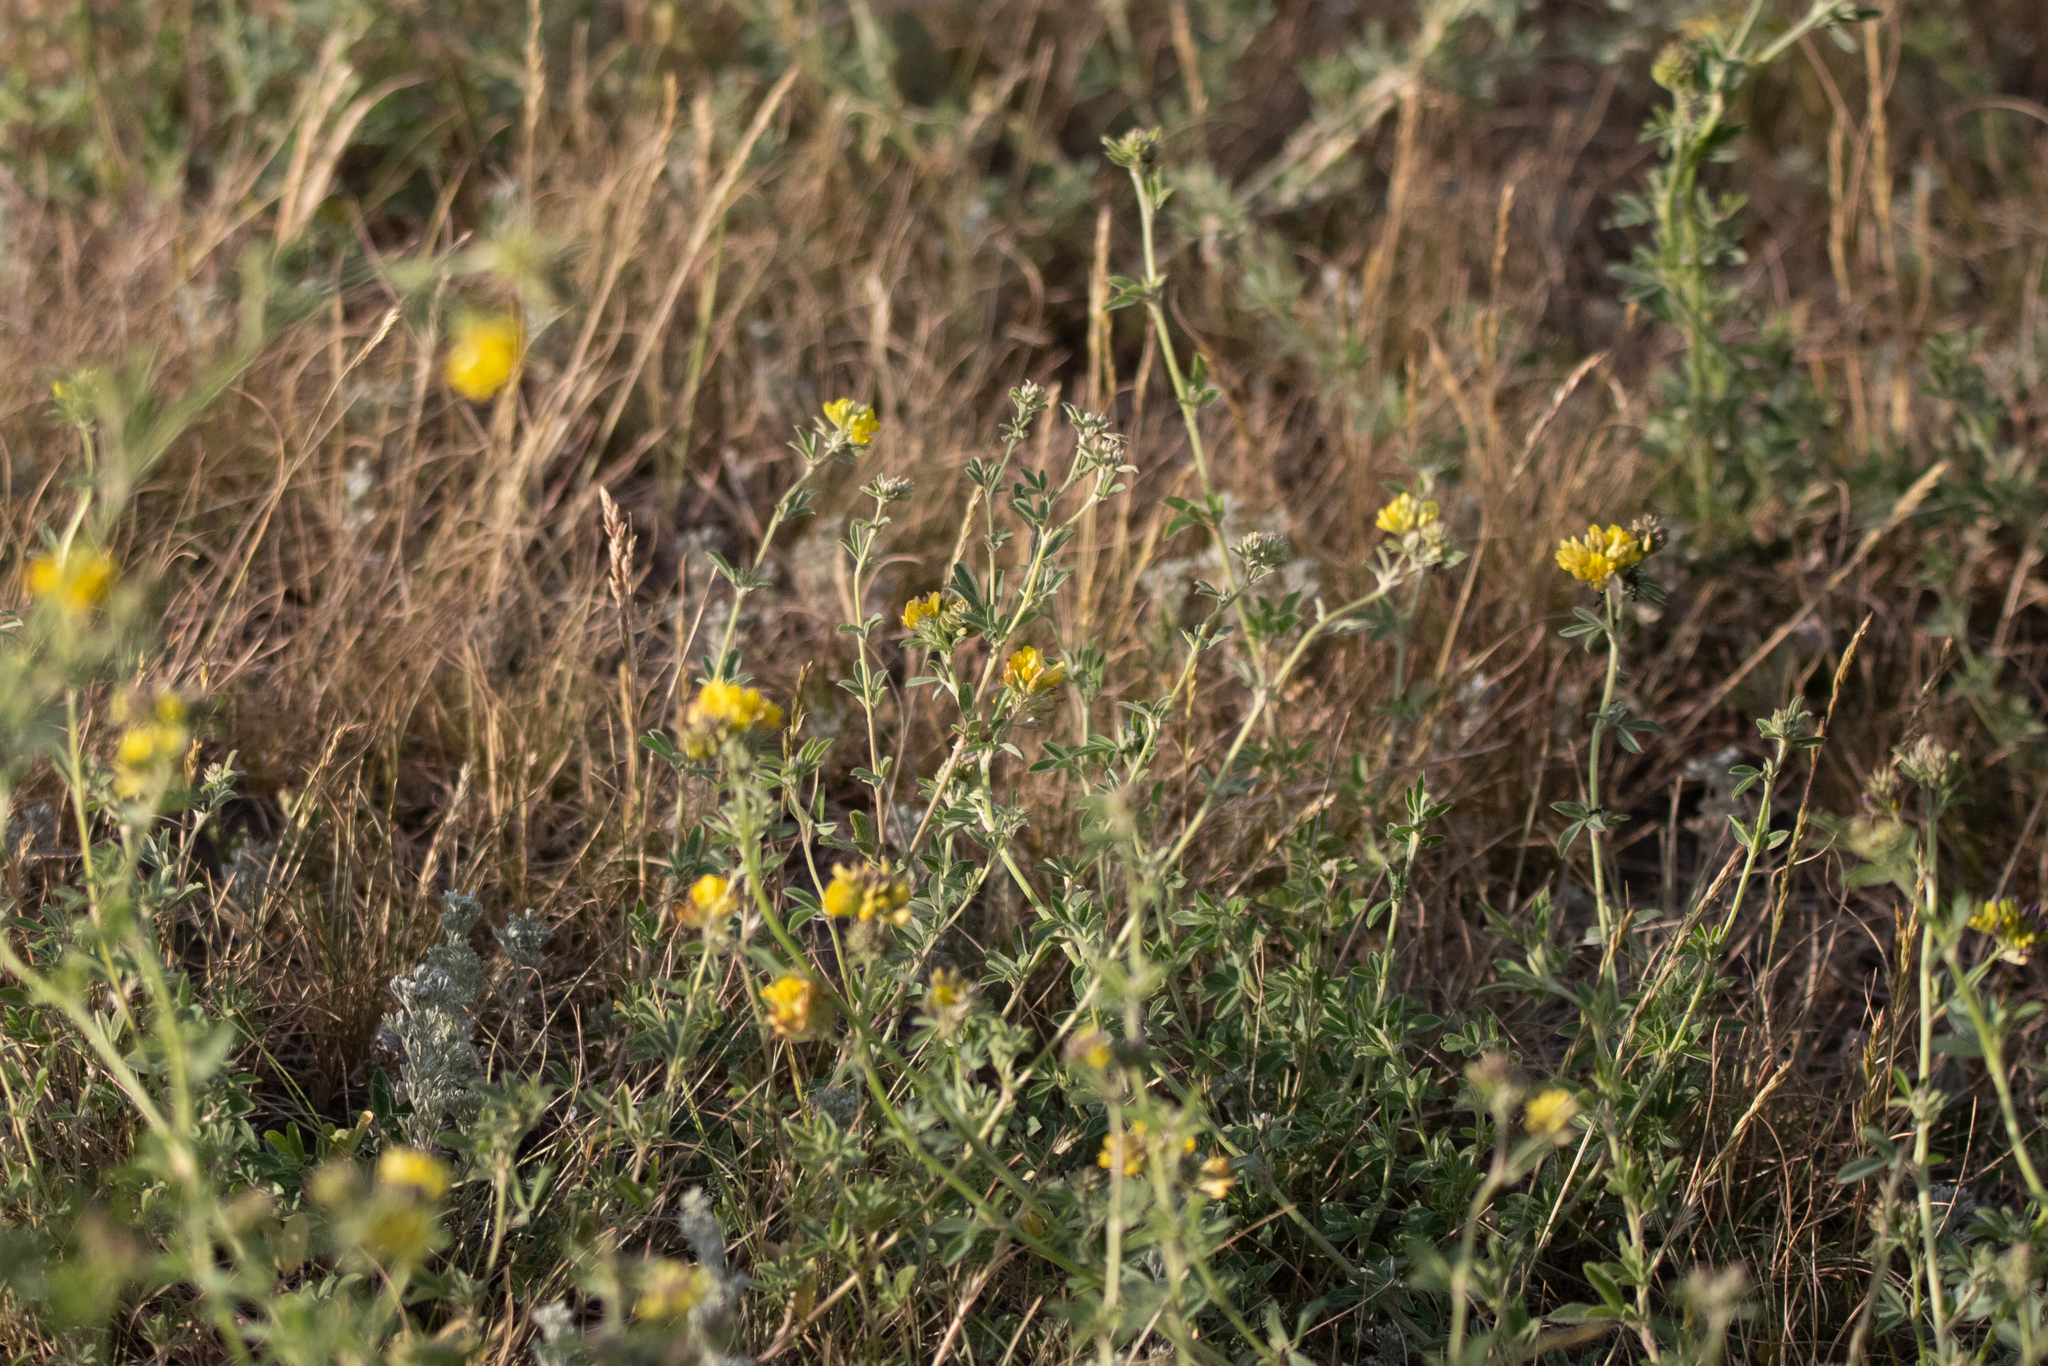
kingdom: Plantae
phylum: Tracheophyta
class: Magnoliopsida
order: Fabales
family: Fabaceae
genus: Medicago
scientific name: Medicago falcata
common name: Sickle medick
